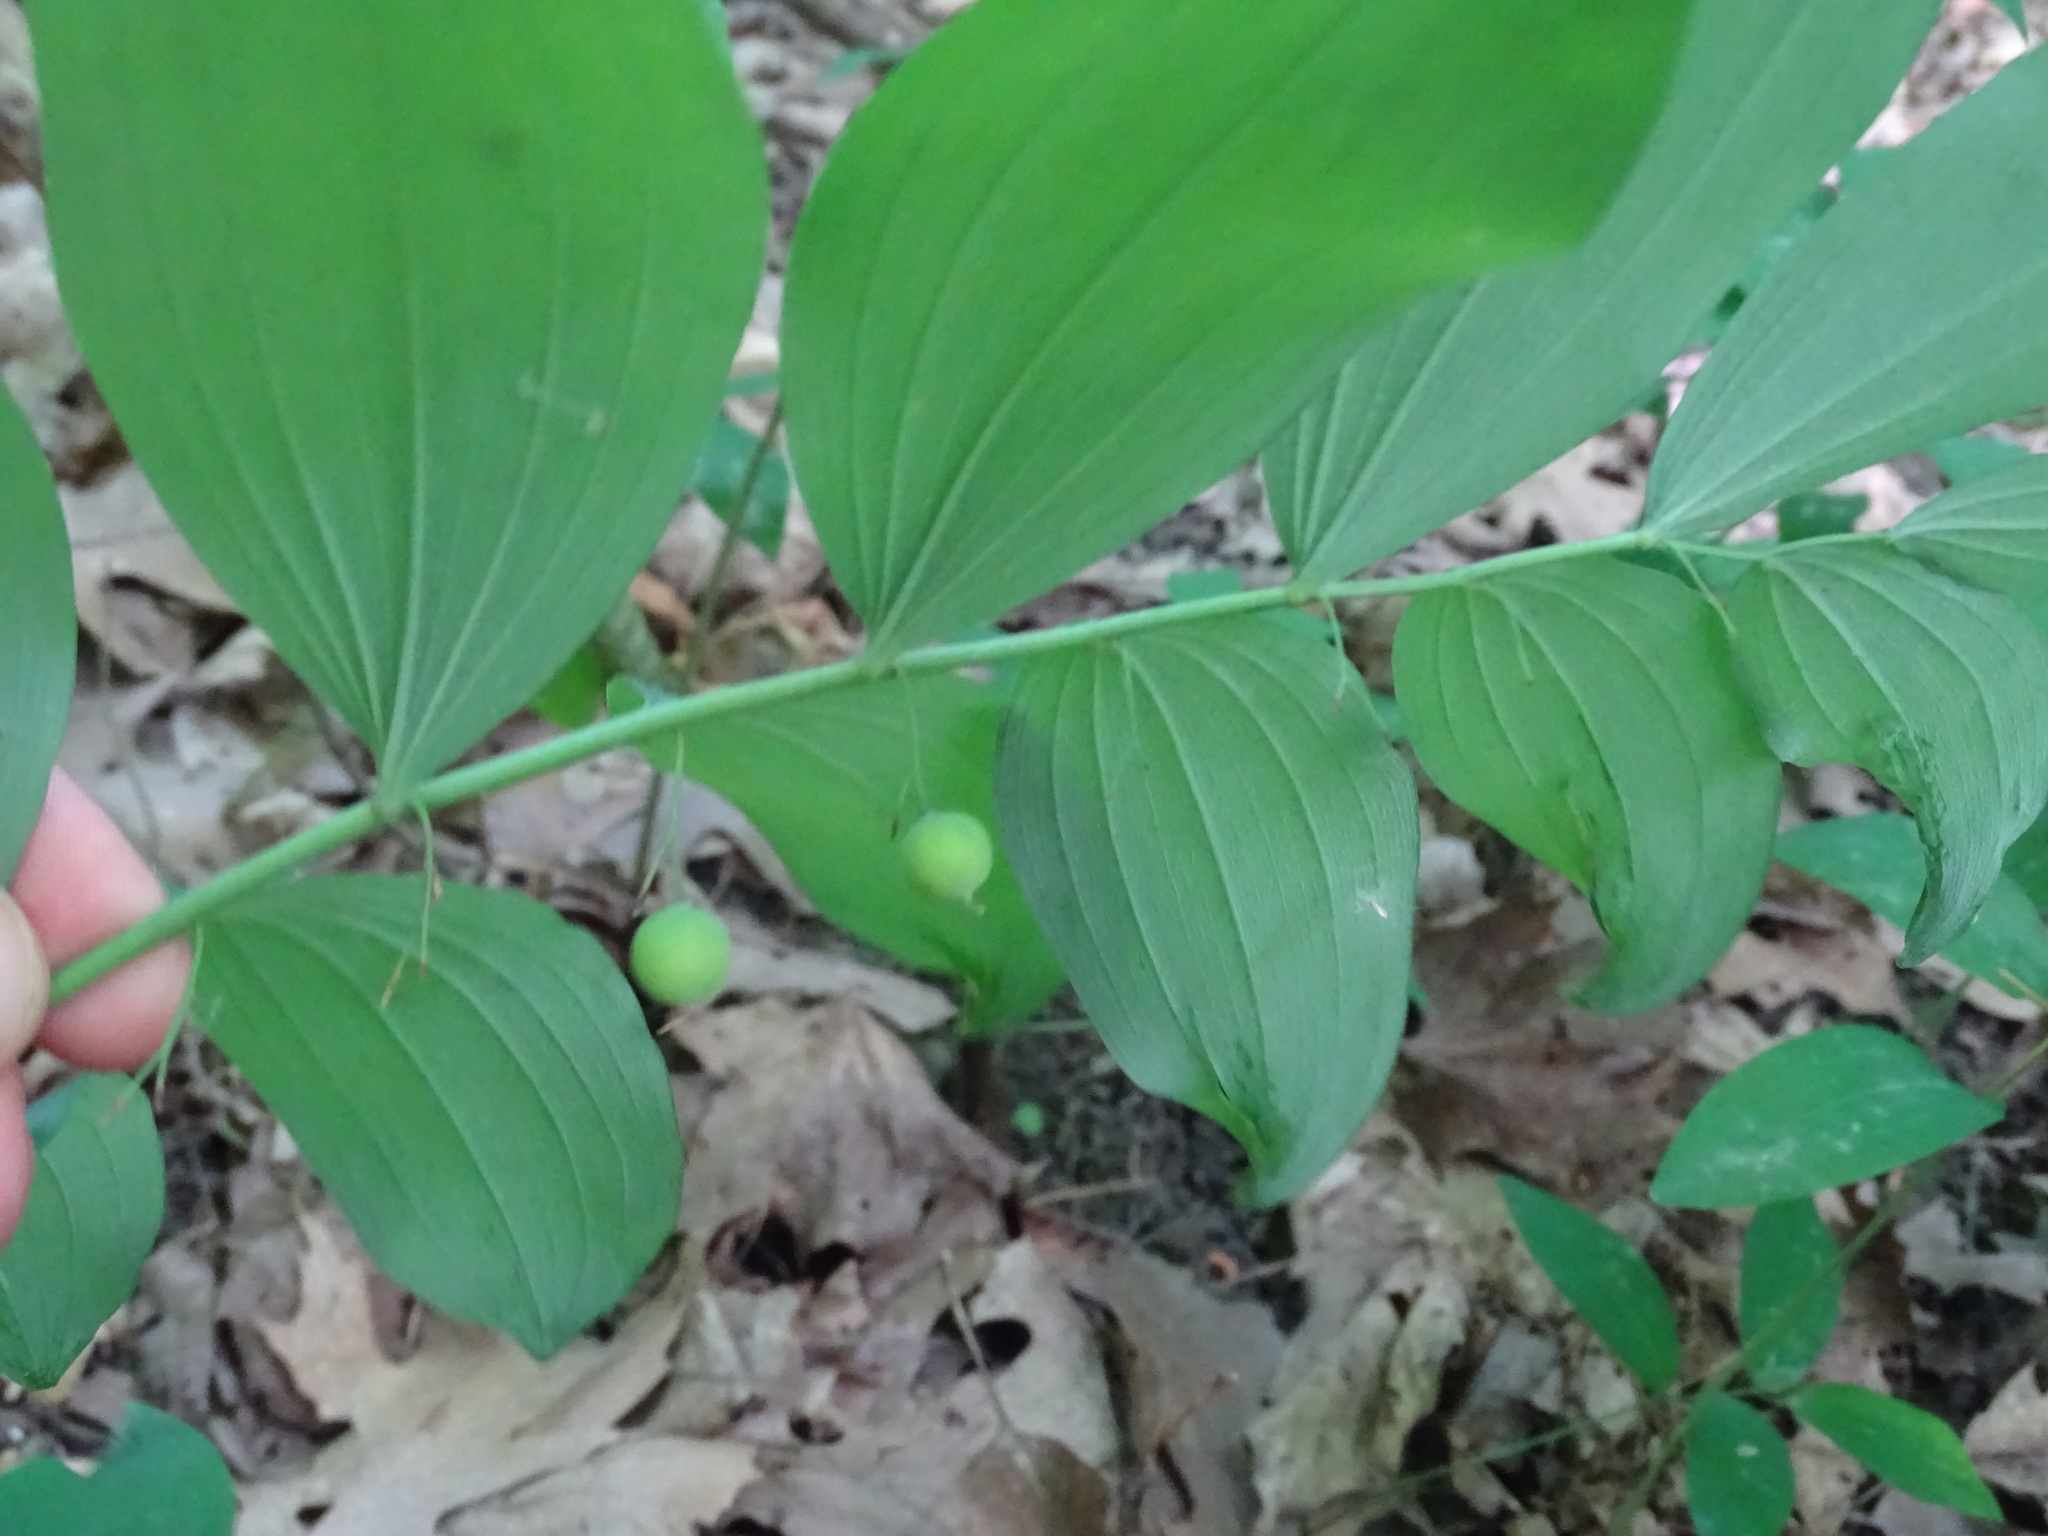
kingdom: Plantae
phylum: Tracheophyta
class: Liliopsida
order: Asparagales
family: Asparagaceae
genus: Polygonatum
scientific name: Polygonatum pubescens
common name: Downy solomon's seal
